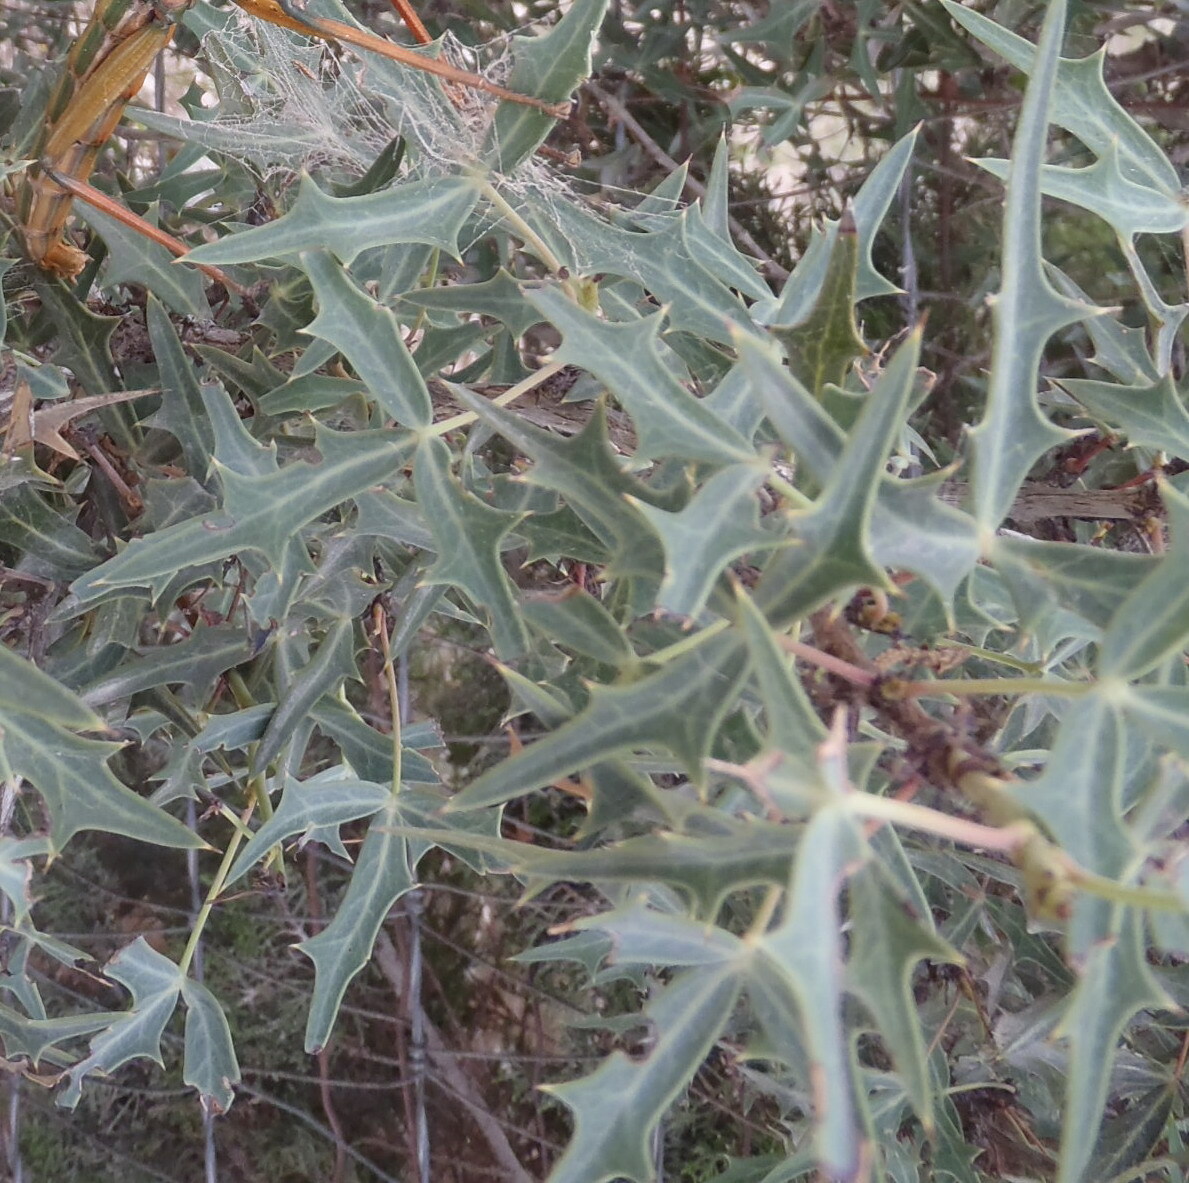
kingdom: Plantae
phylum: Tracheophyta
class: Magnoliopsida
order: Ranunculales
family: Berberidaceae
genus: Alloberberis
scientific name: Alloberberis trifoliolata
